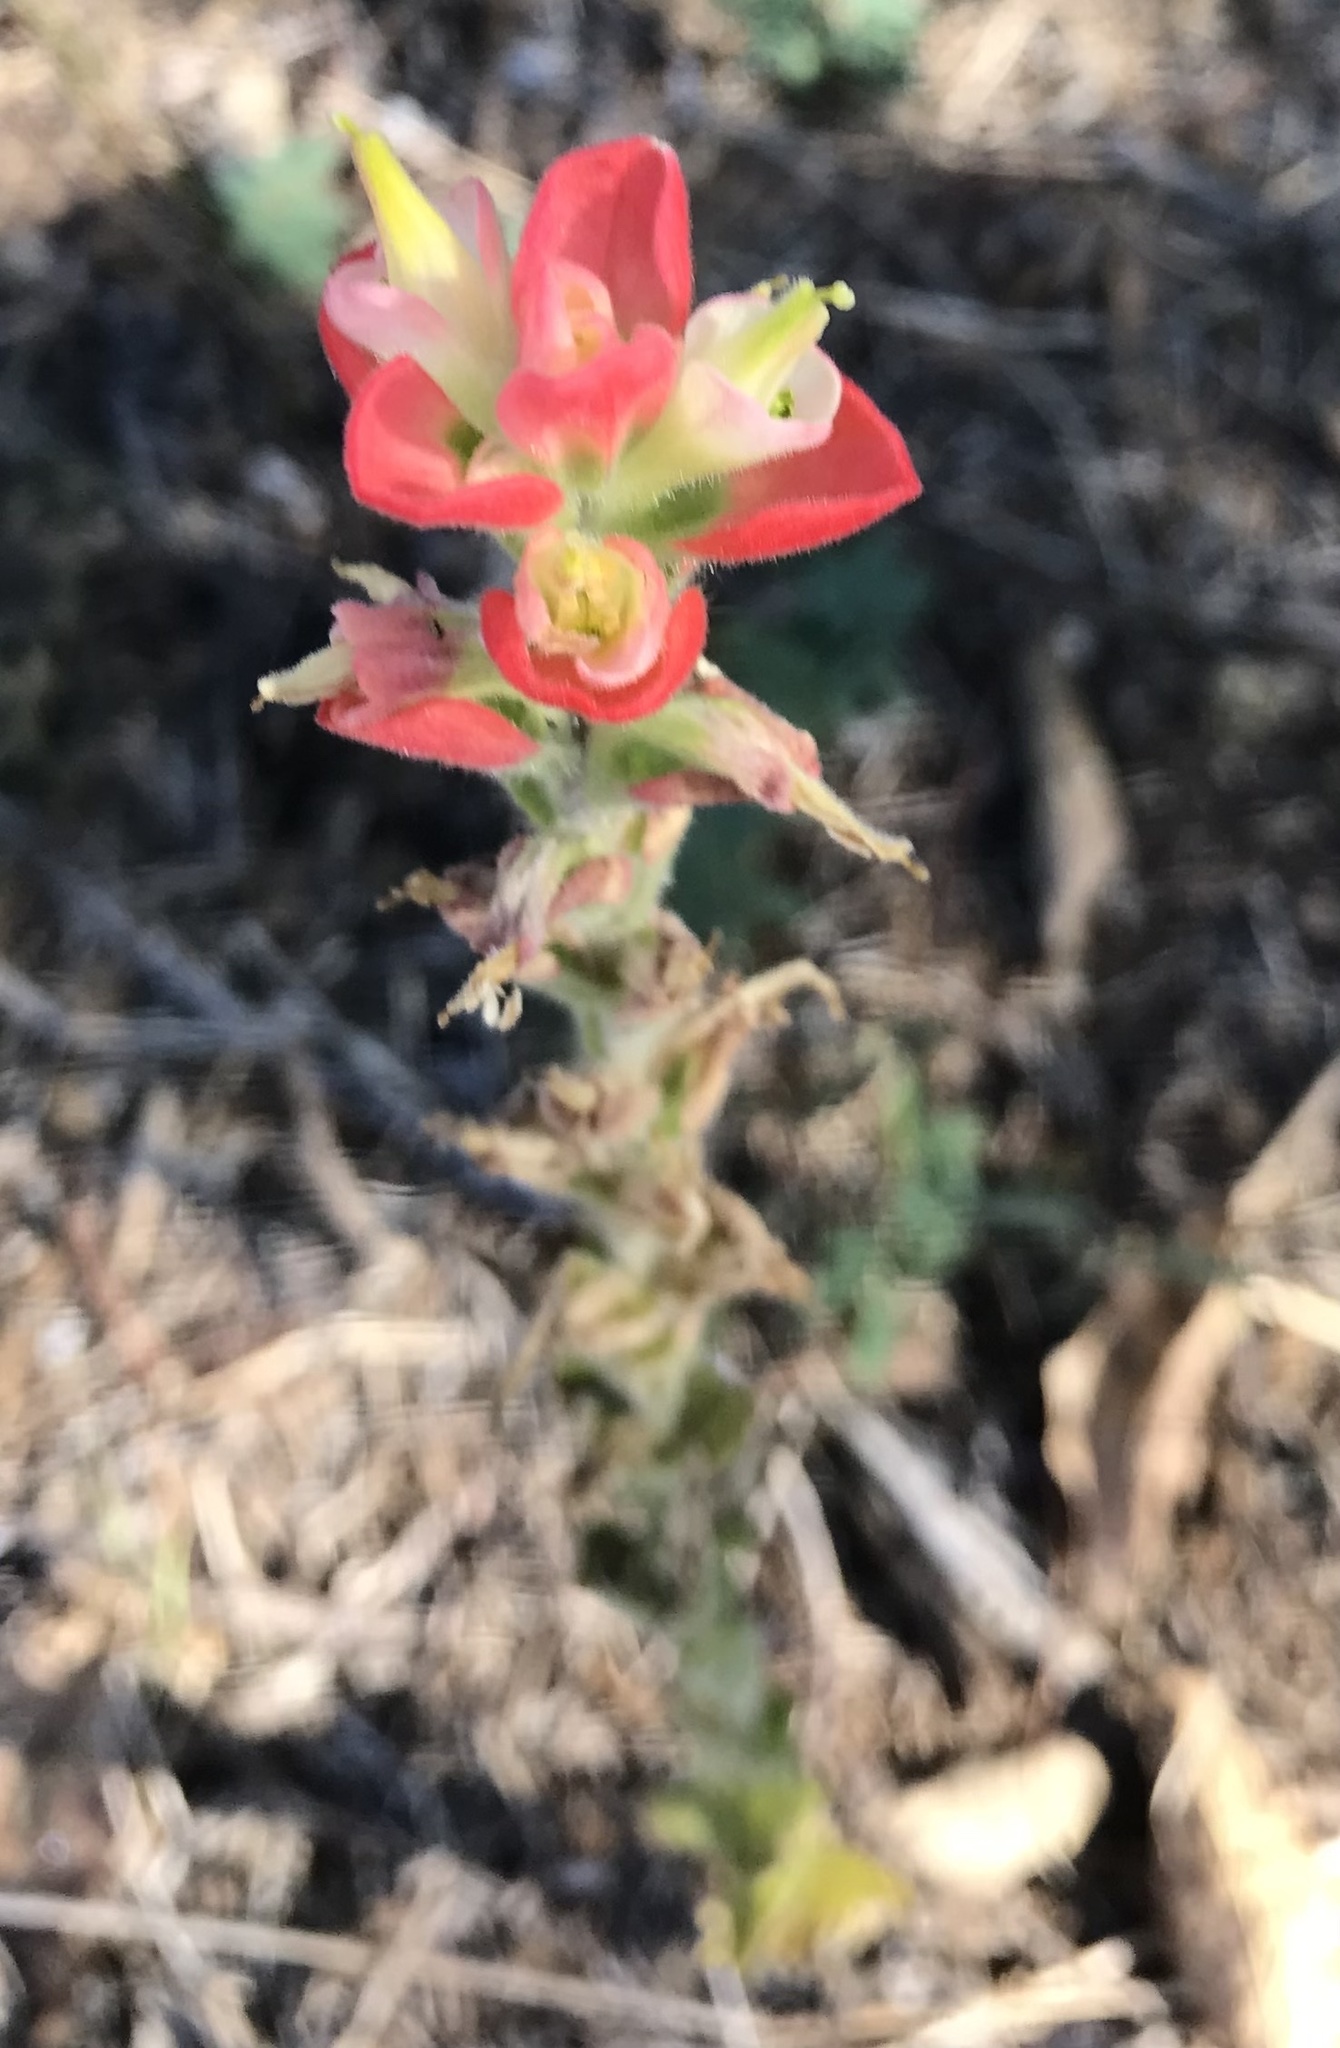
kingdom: Plantae
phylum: Tracheophyta
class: Magnoliopsida
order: Lamiales
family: Orobanchaceae
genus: Castilleja
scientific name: Castilleja indivisa
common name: Texas paintbrush
